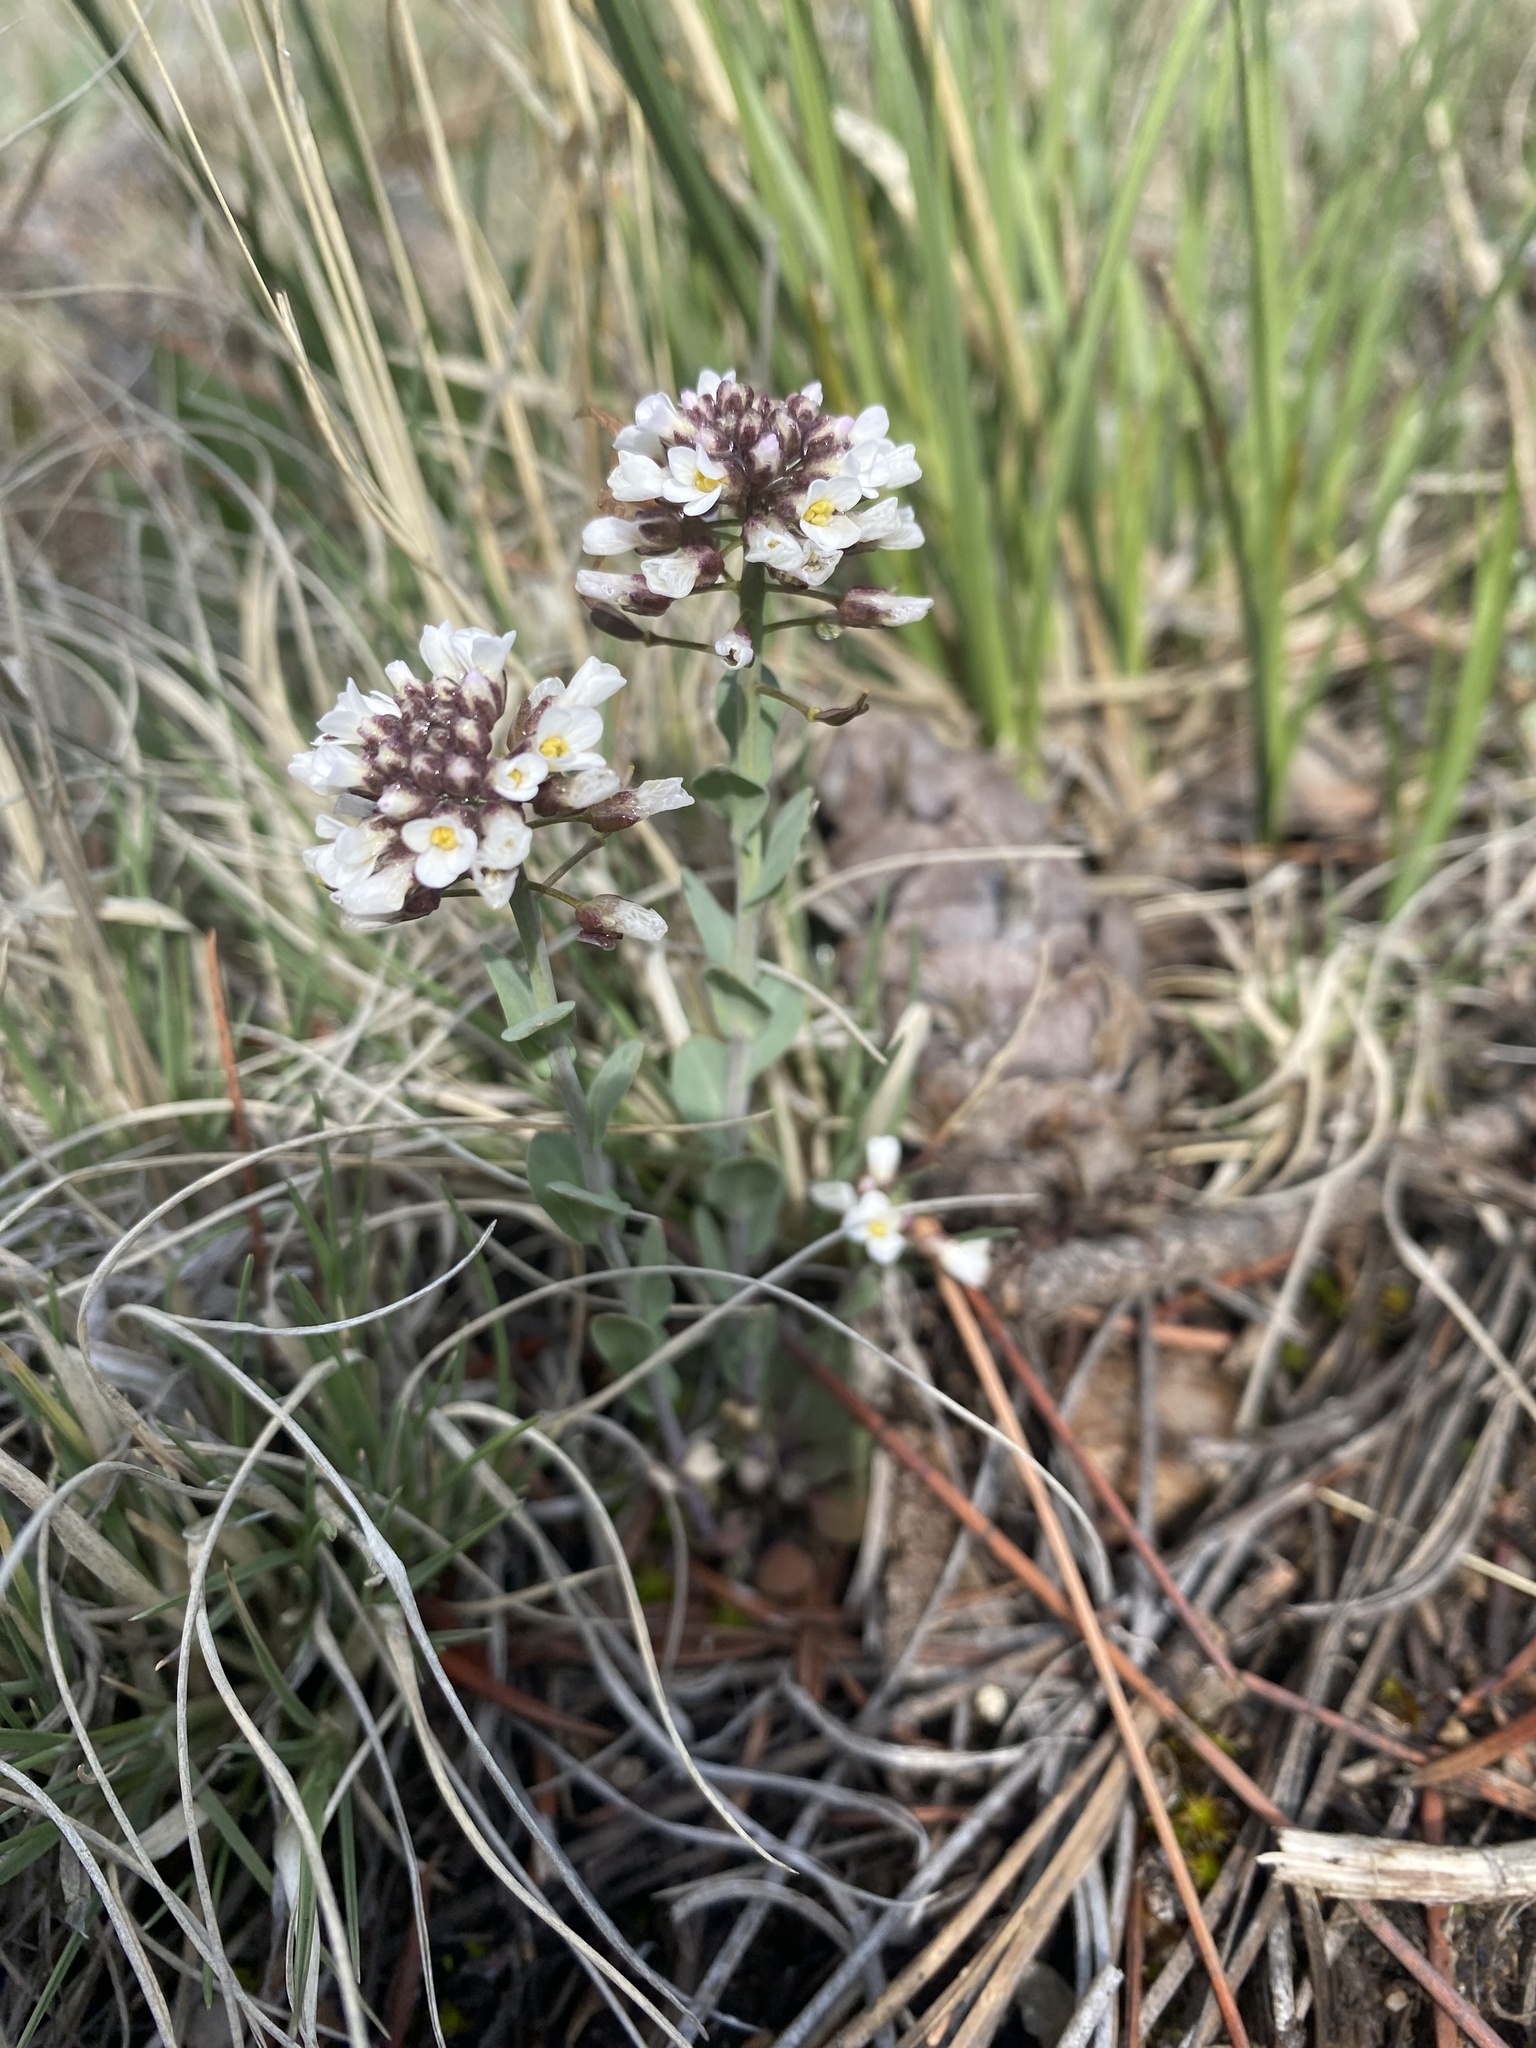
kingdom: Plantae
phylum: Tracheophyta
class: Magnoliopsida
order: Brassicales
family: Brassicaceae
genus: Noccaea
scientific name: Noccaea fendleri
